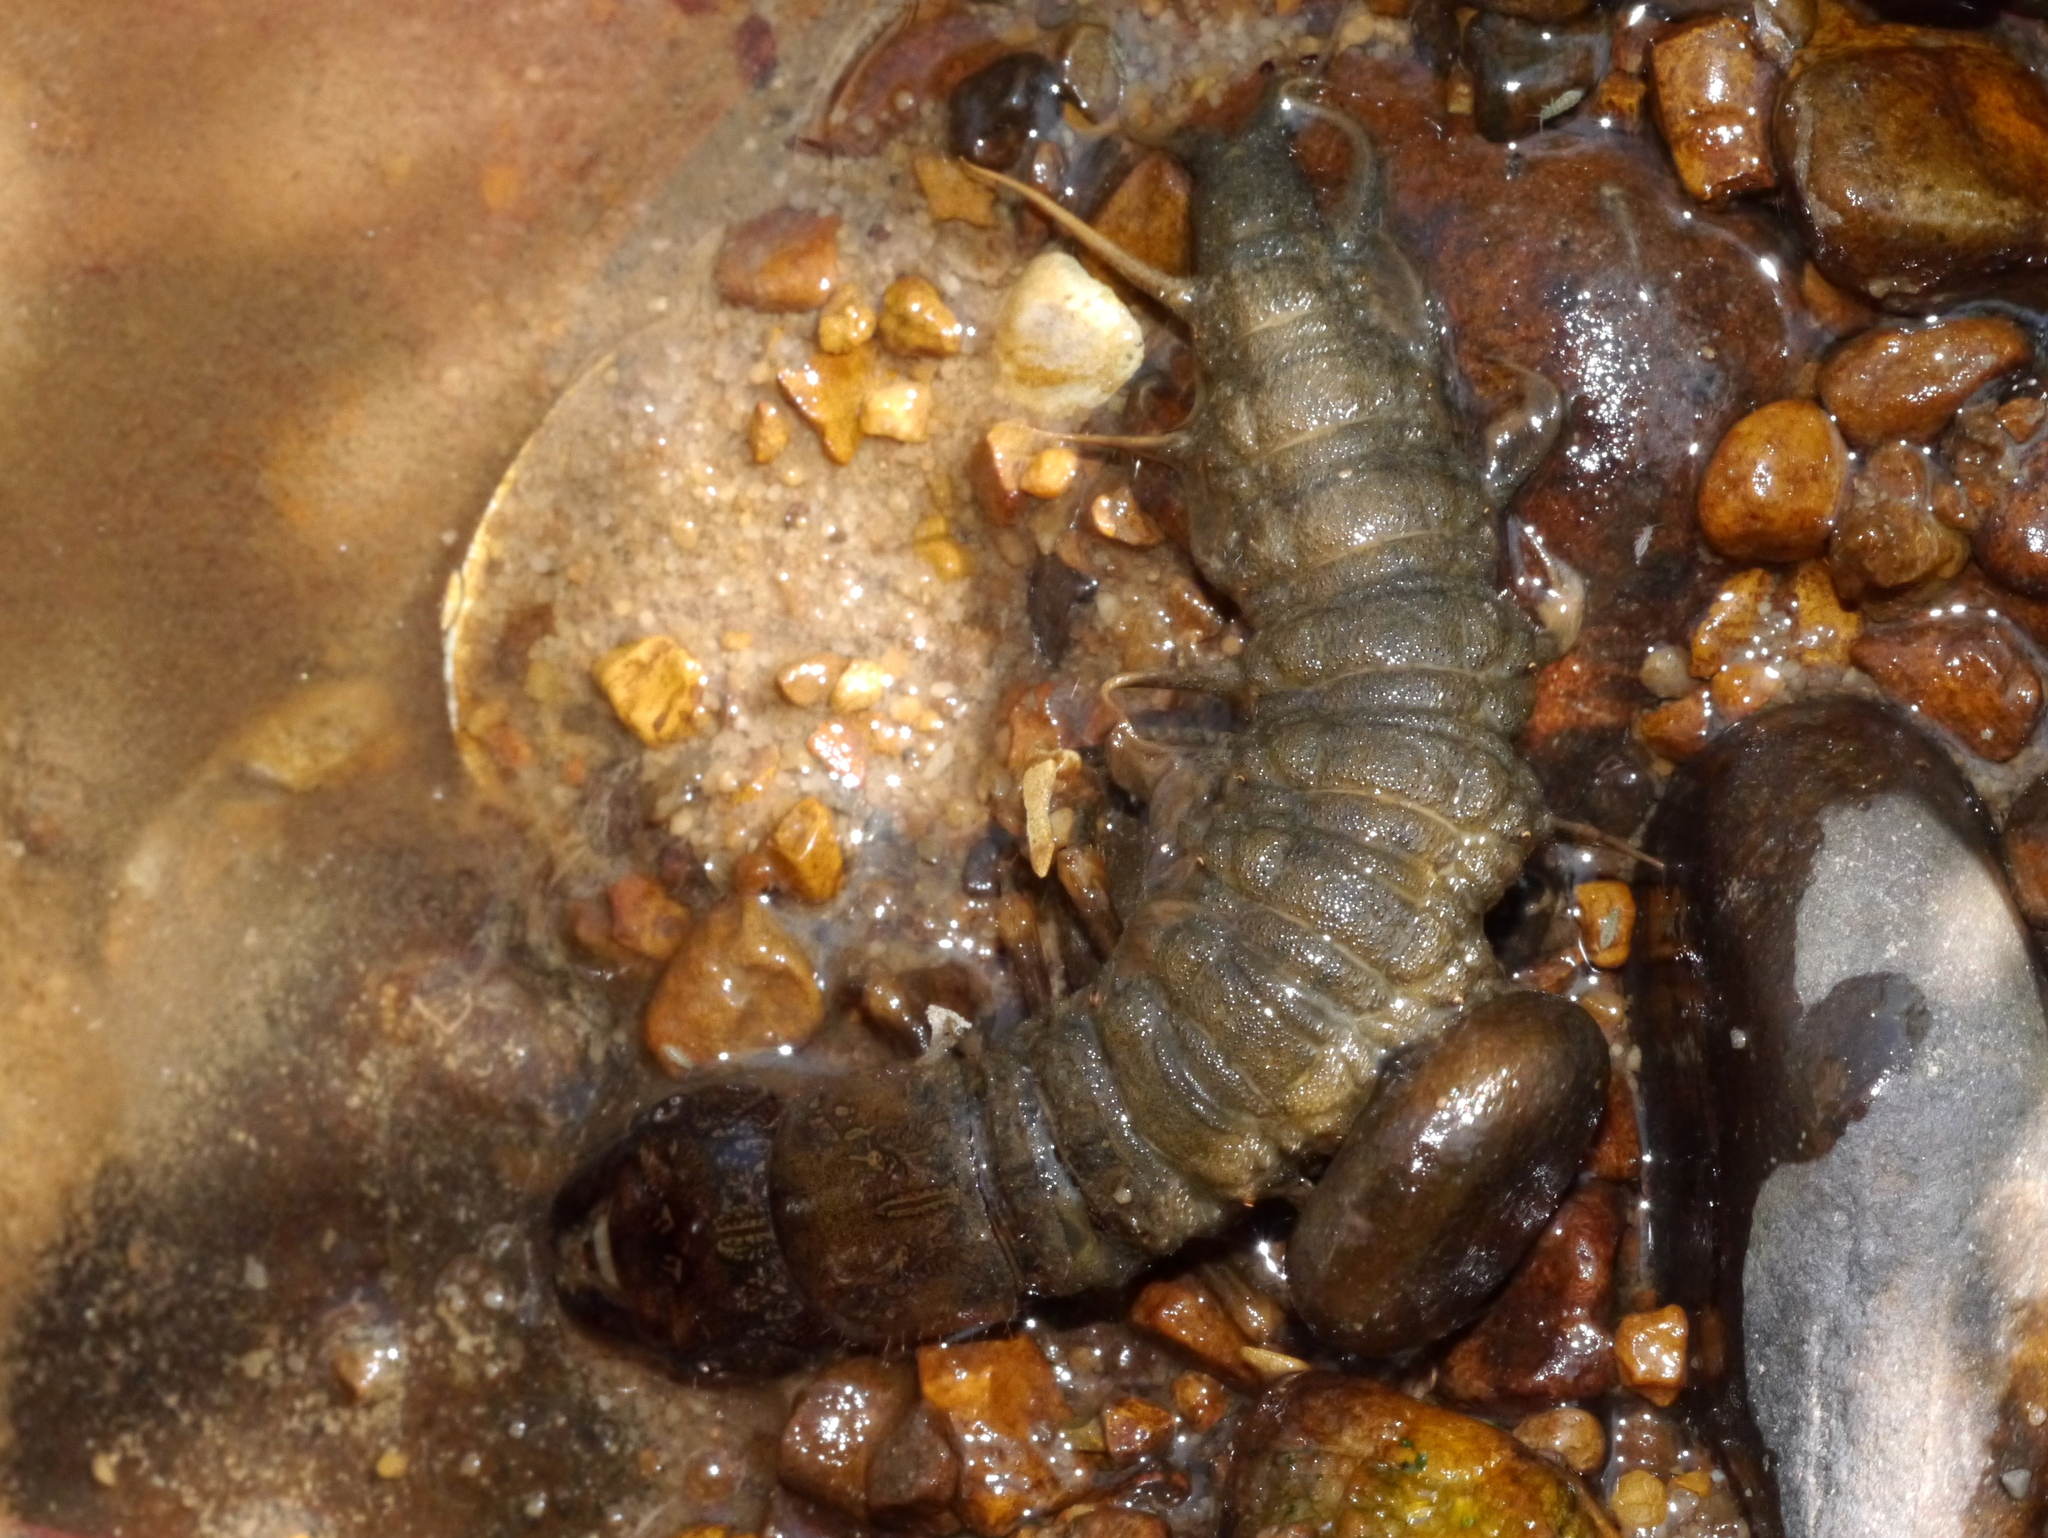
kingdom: Animalia
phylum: Arthropoda
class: Insecta
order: Megaloptera
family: Corydalidae
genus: Corydalus
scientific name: Corydalus cornutus
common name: Dobsonfly
